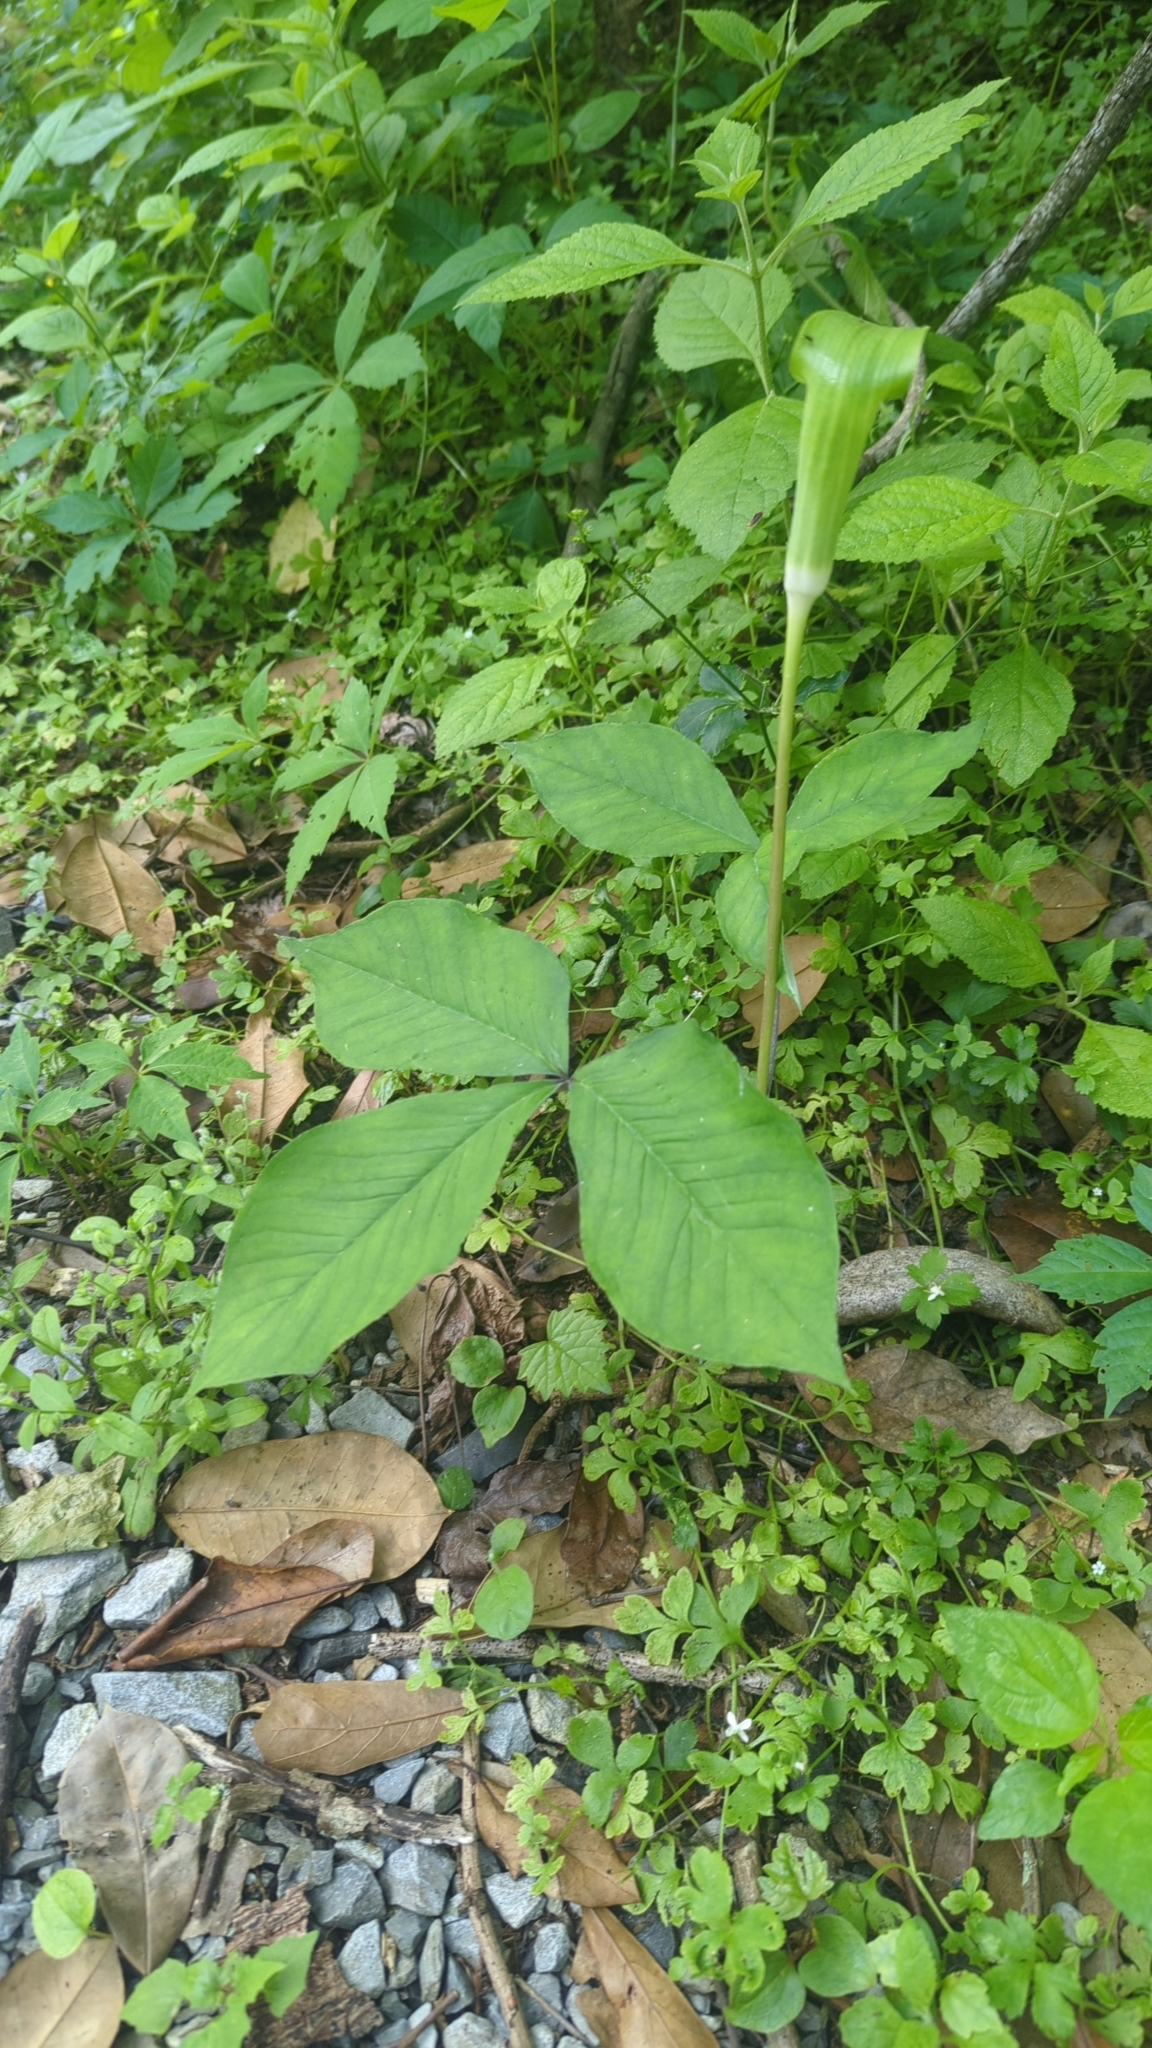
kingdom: Plantae
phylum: Tracheophyta
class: Liliopsida
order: Alismatales
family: Araceae
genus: Arisaema
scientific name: Arisaema triphyllum
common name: Jack-in-the-pulpit
